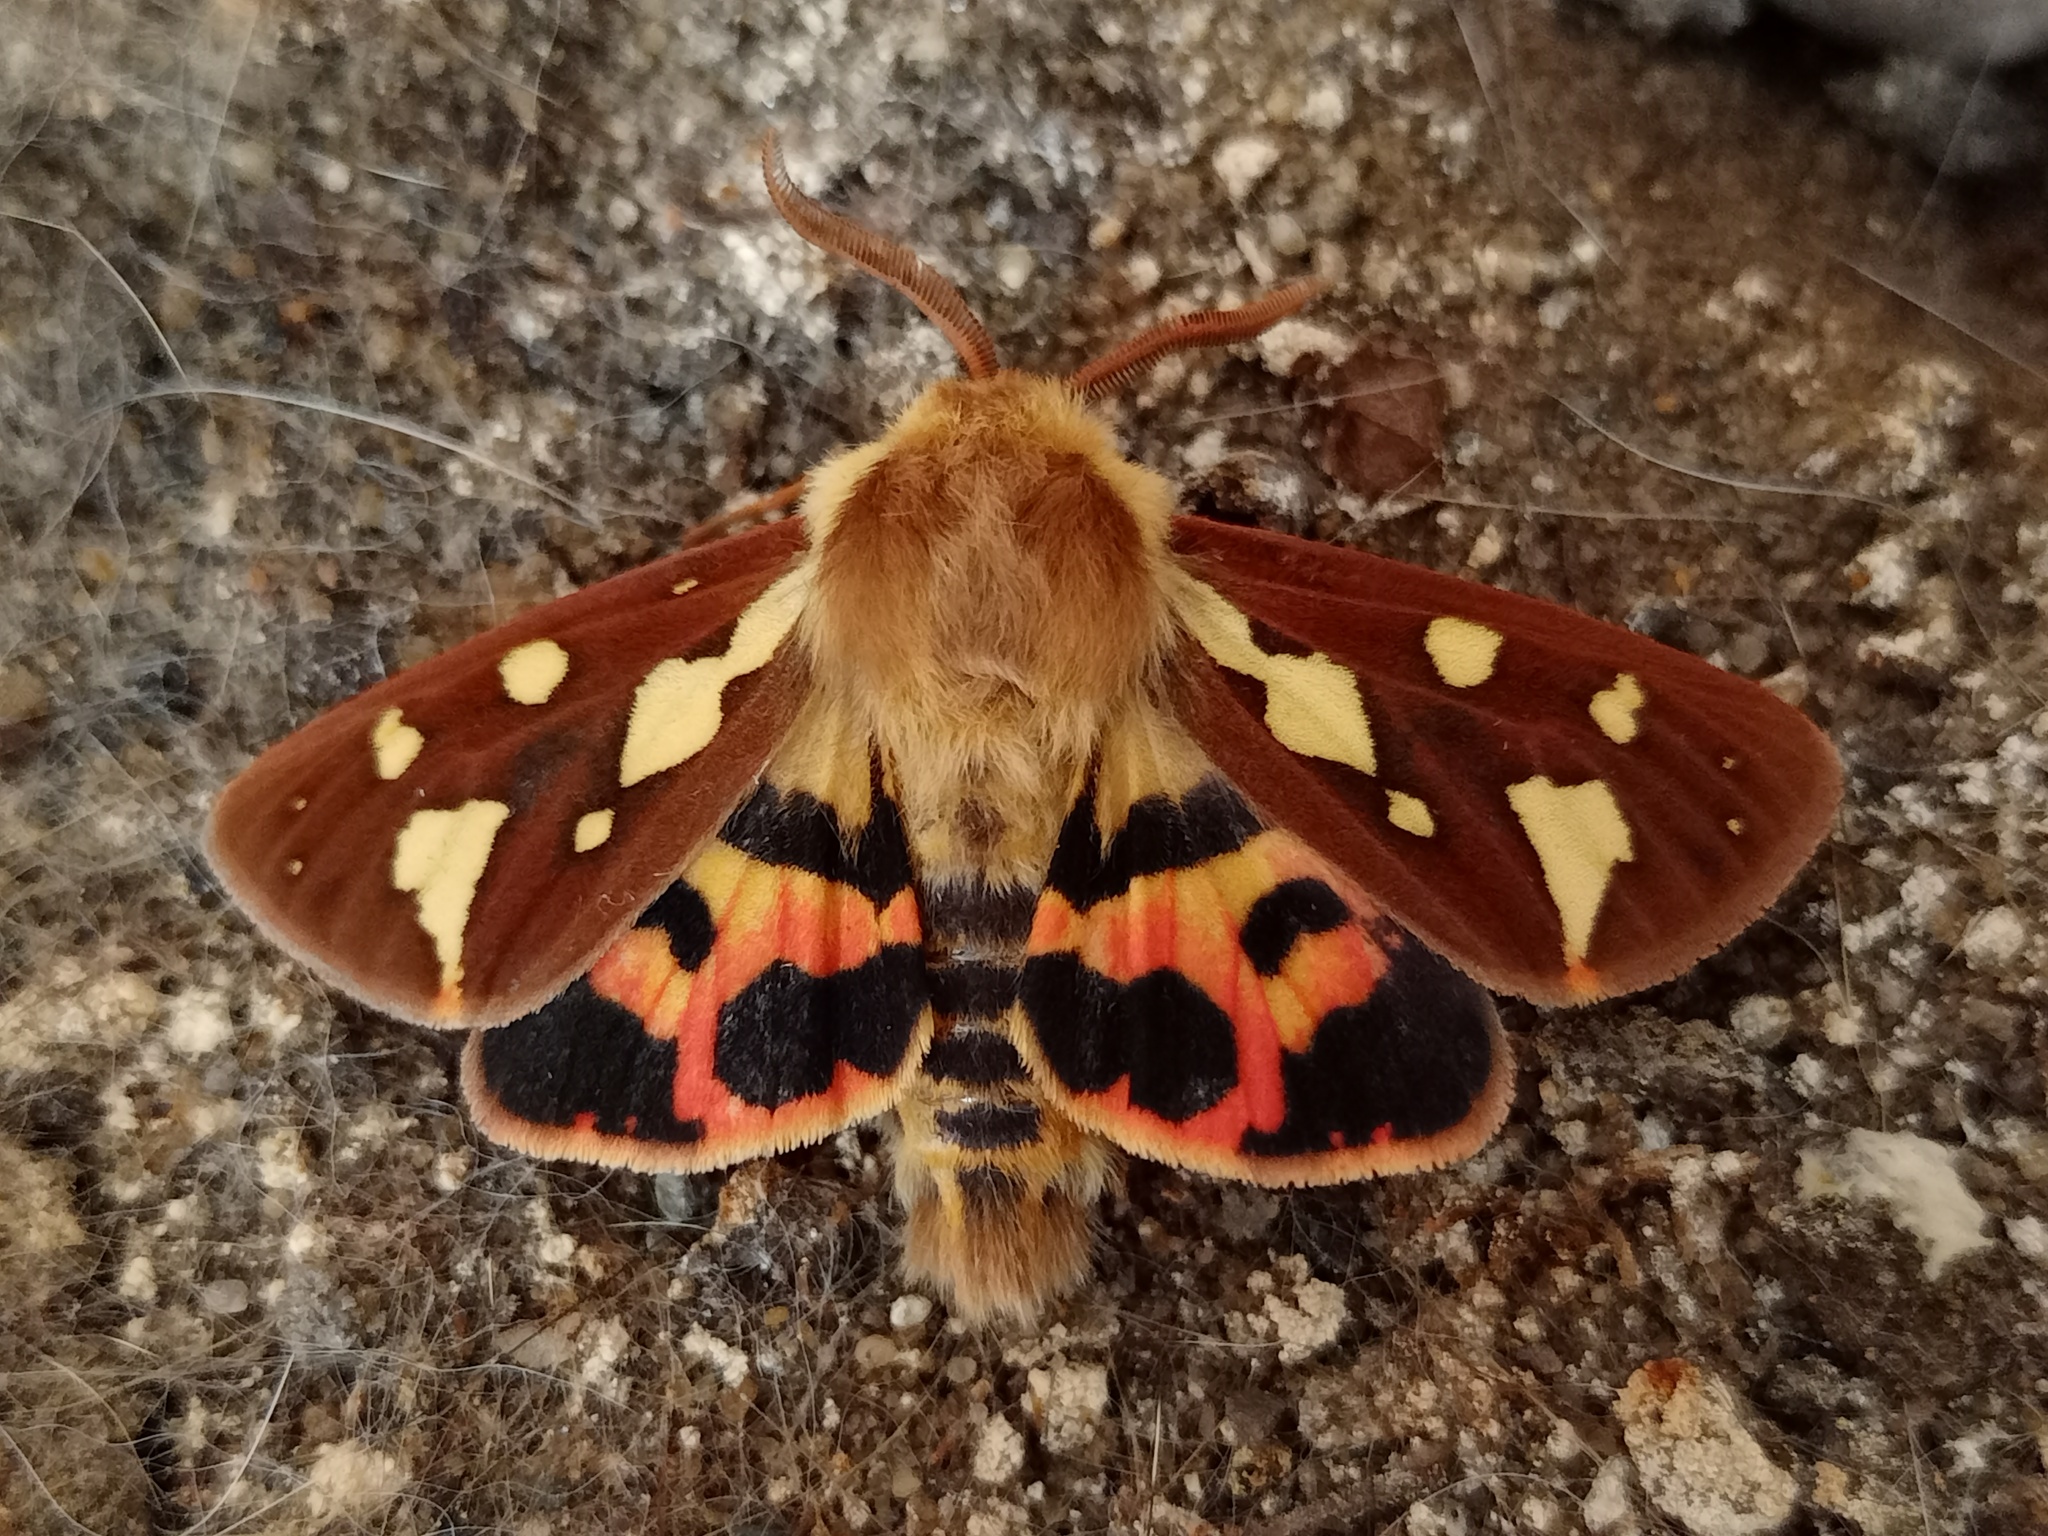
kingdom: Animalia
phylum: Arthropoda
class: Insecta
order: Lepidoptera
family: Erebidae
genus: Arctia
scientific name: Arctia testudinaria
